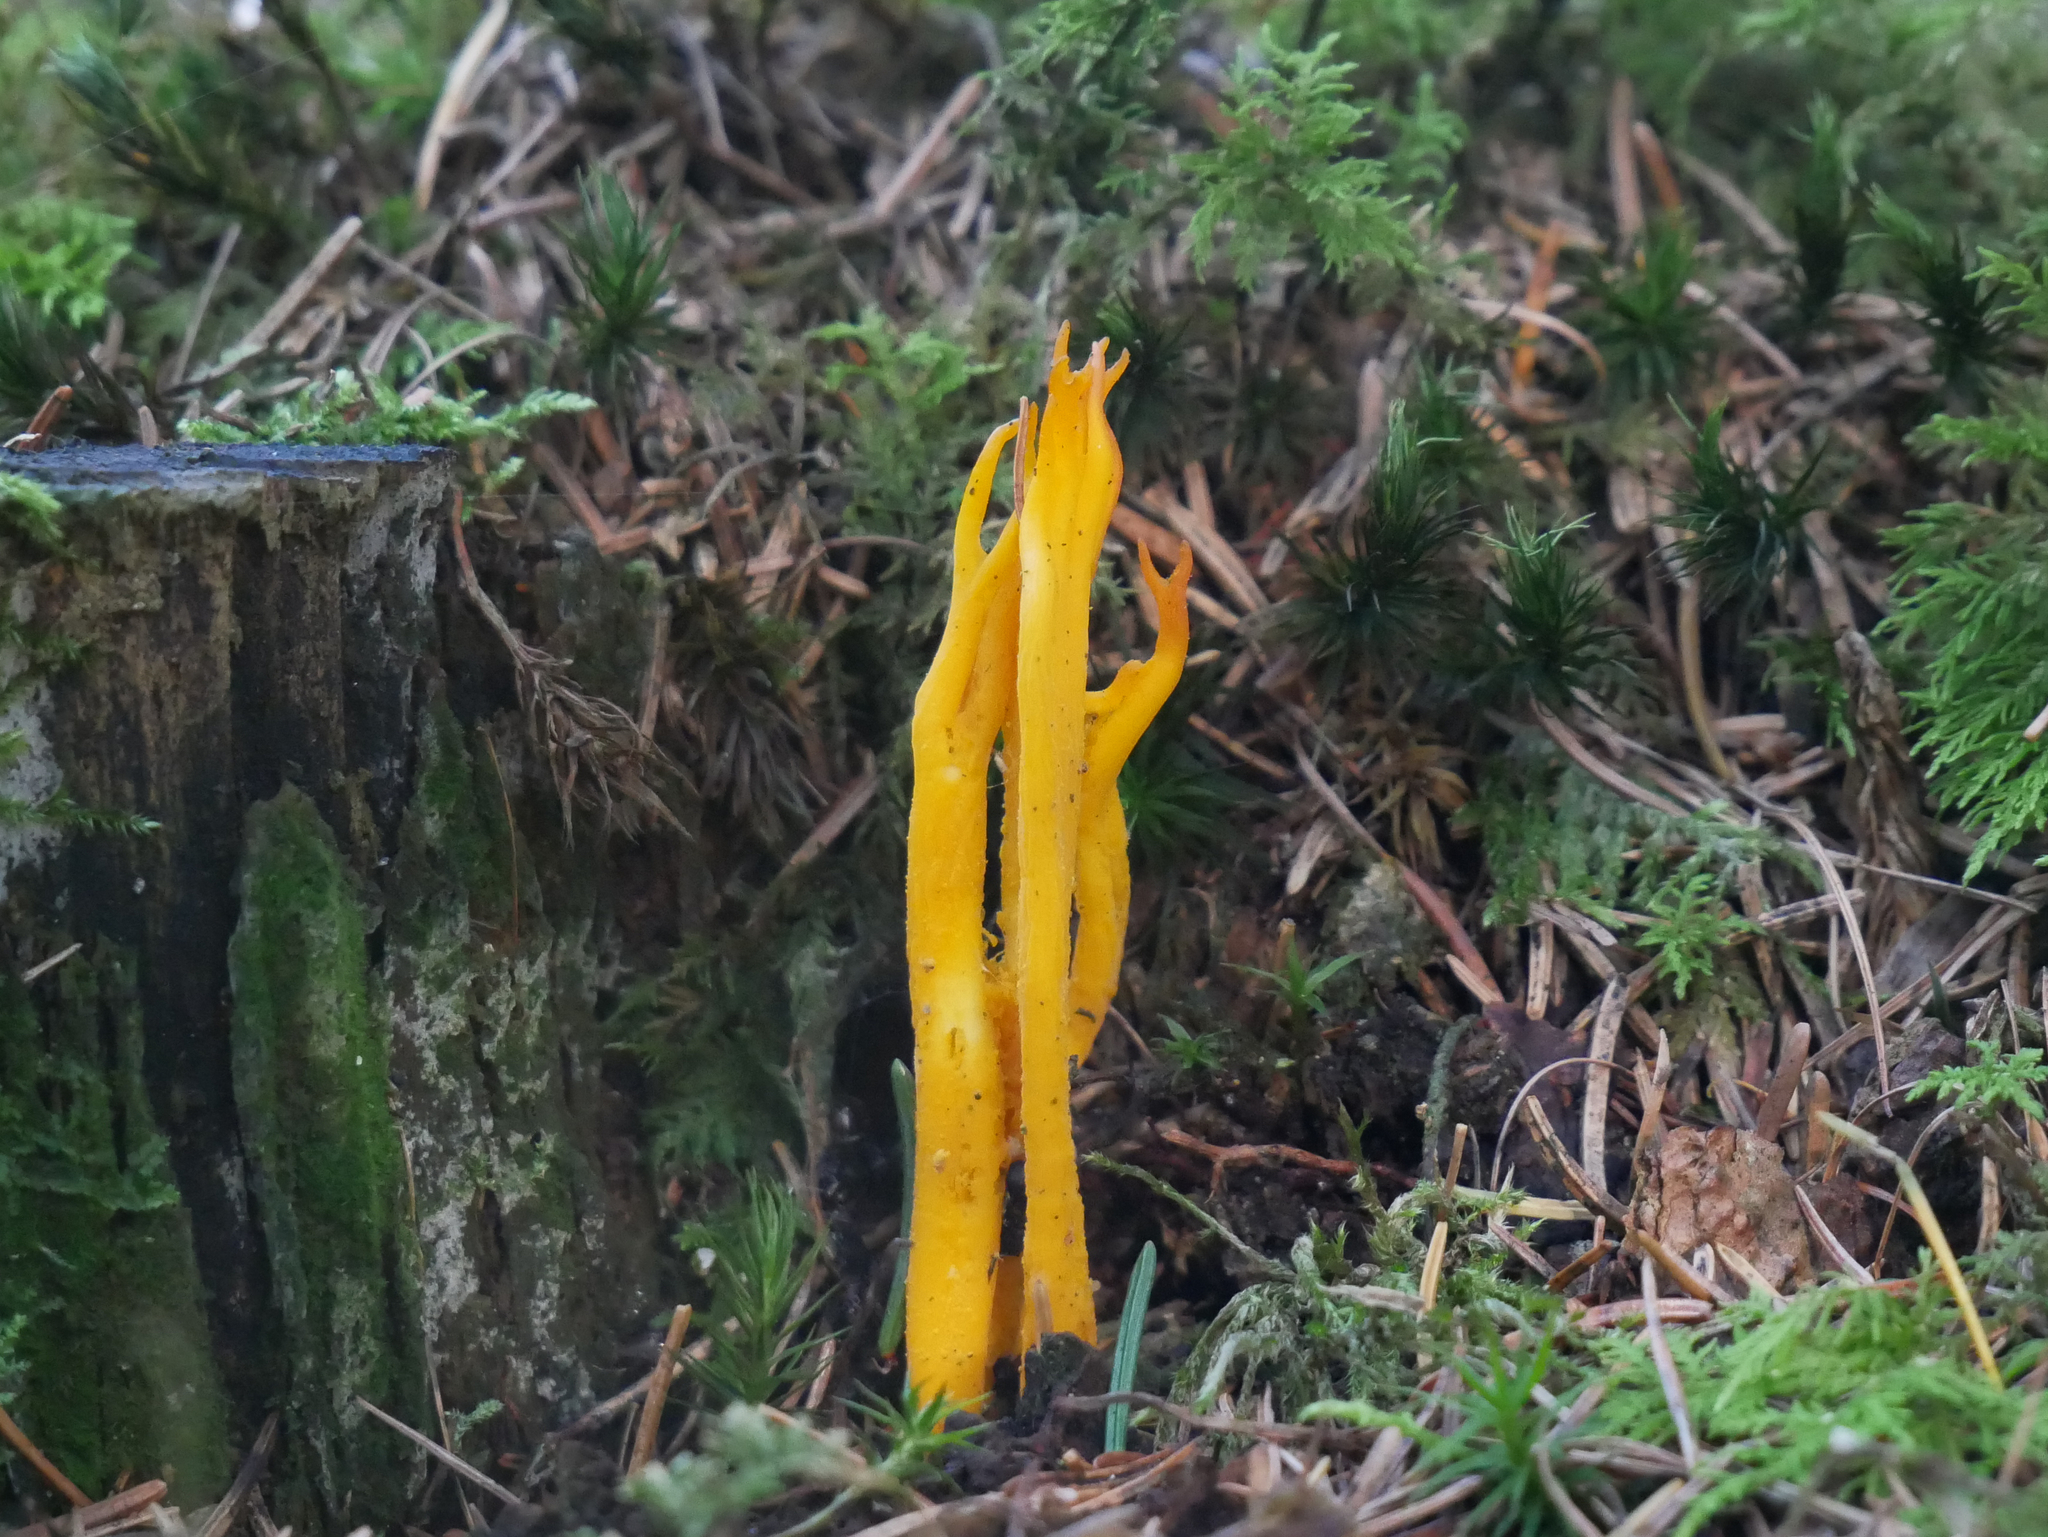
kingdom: Fungi
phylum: Basidiomycota
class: Dacrymycetes
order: Dacrymycetales
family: Dacrymycetaceae
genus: Calocera
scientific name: Calocera viscosa
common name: Yellow stagshorn
